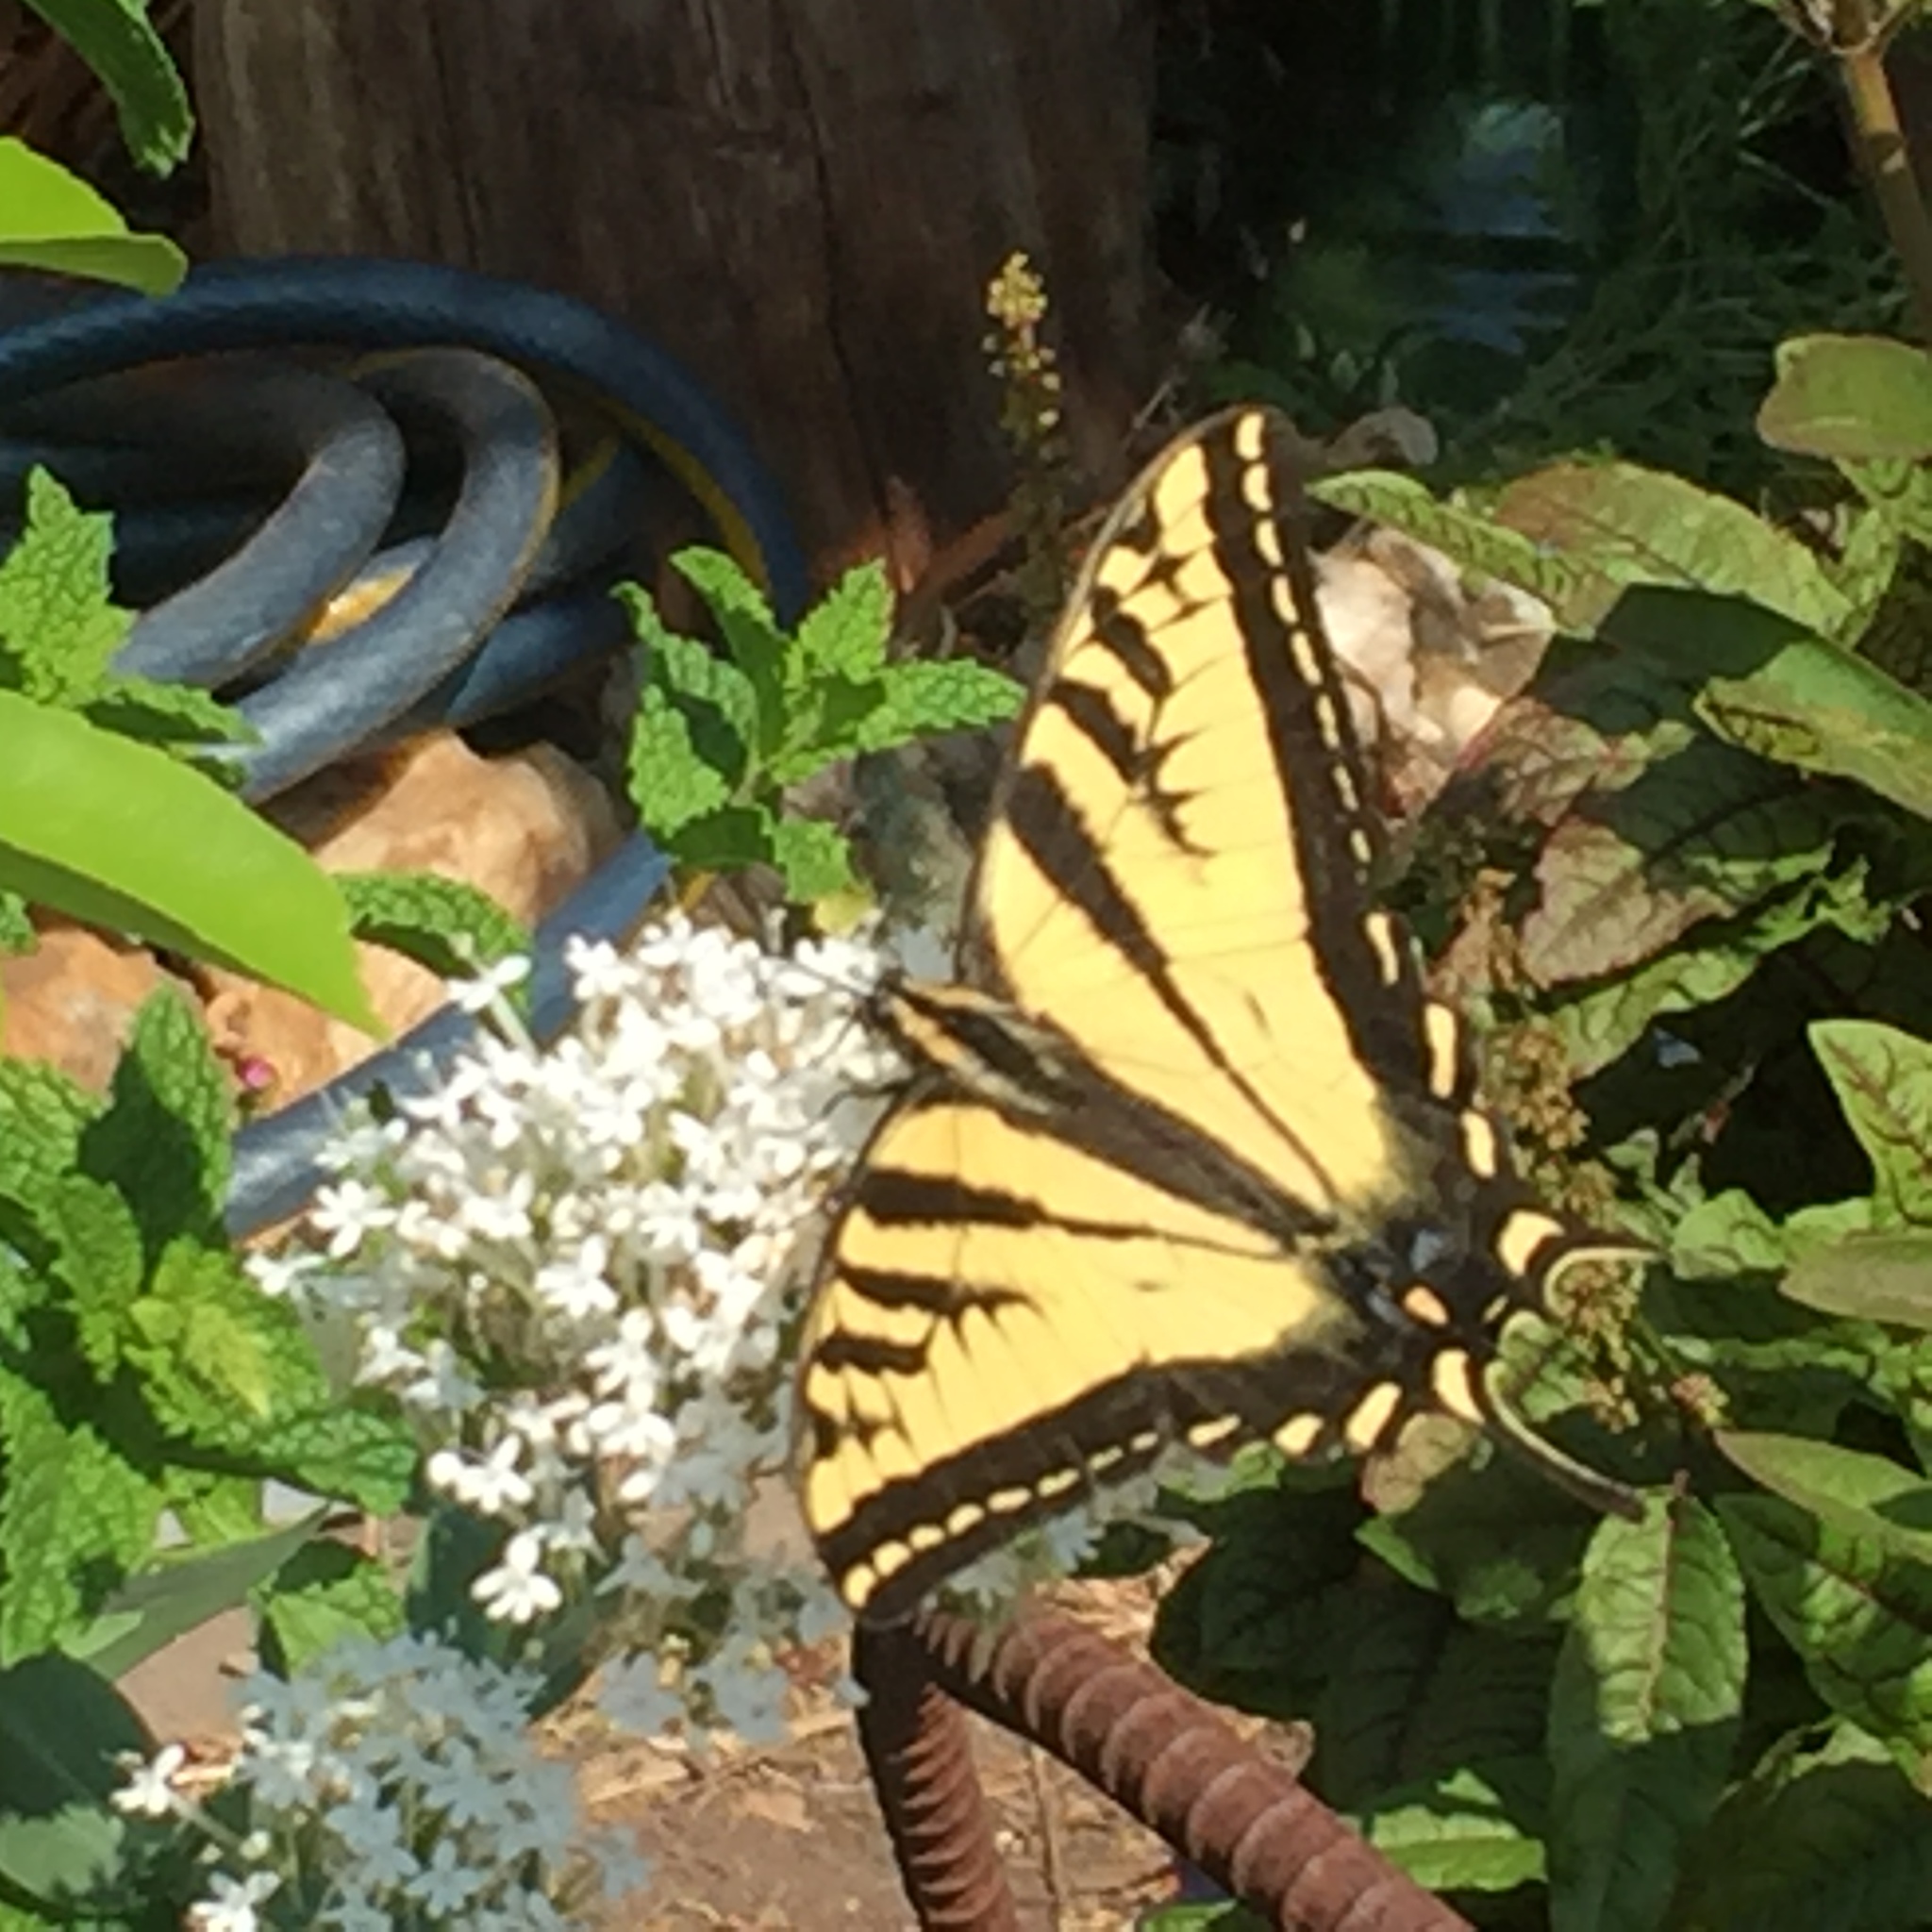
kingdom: Animalia
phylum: Arthropoda
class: Insecta
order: Lepidoptera
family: Papilionidae
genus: Papilio
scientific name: Papilio rutulus
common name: Western tiger swallowtail
